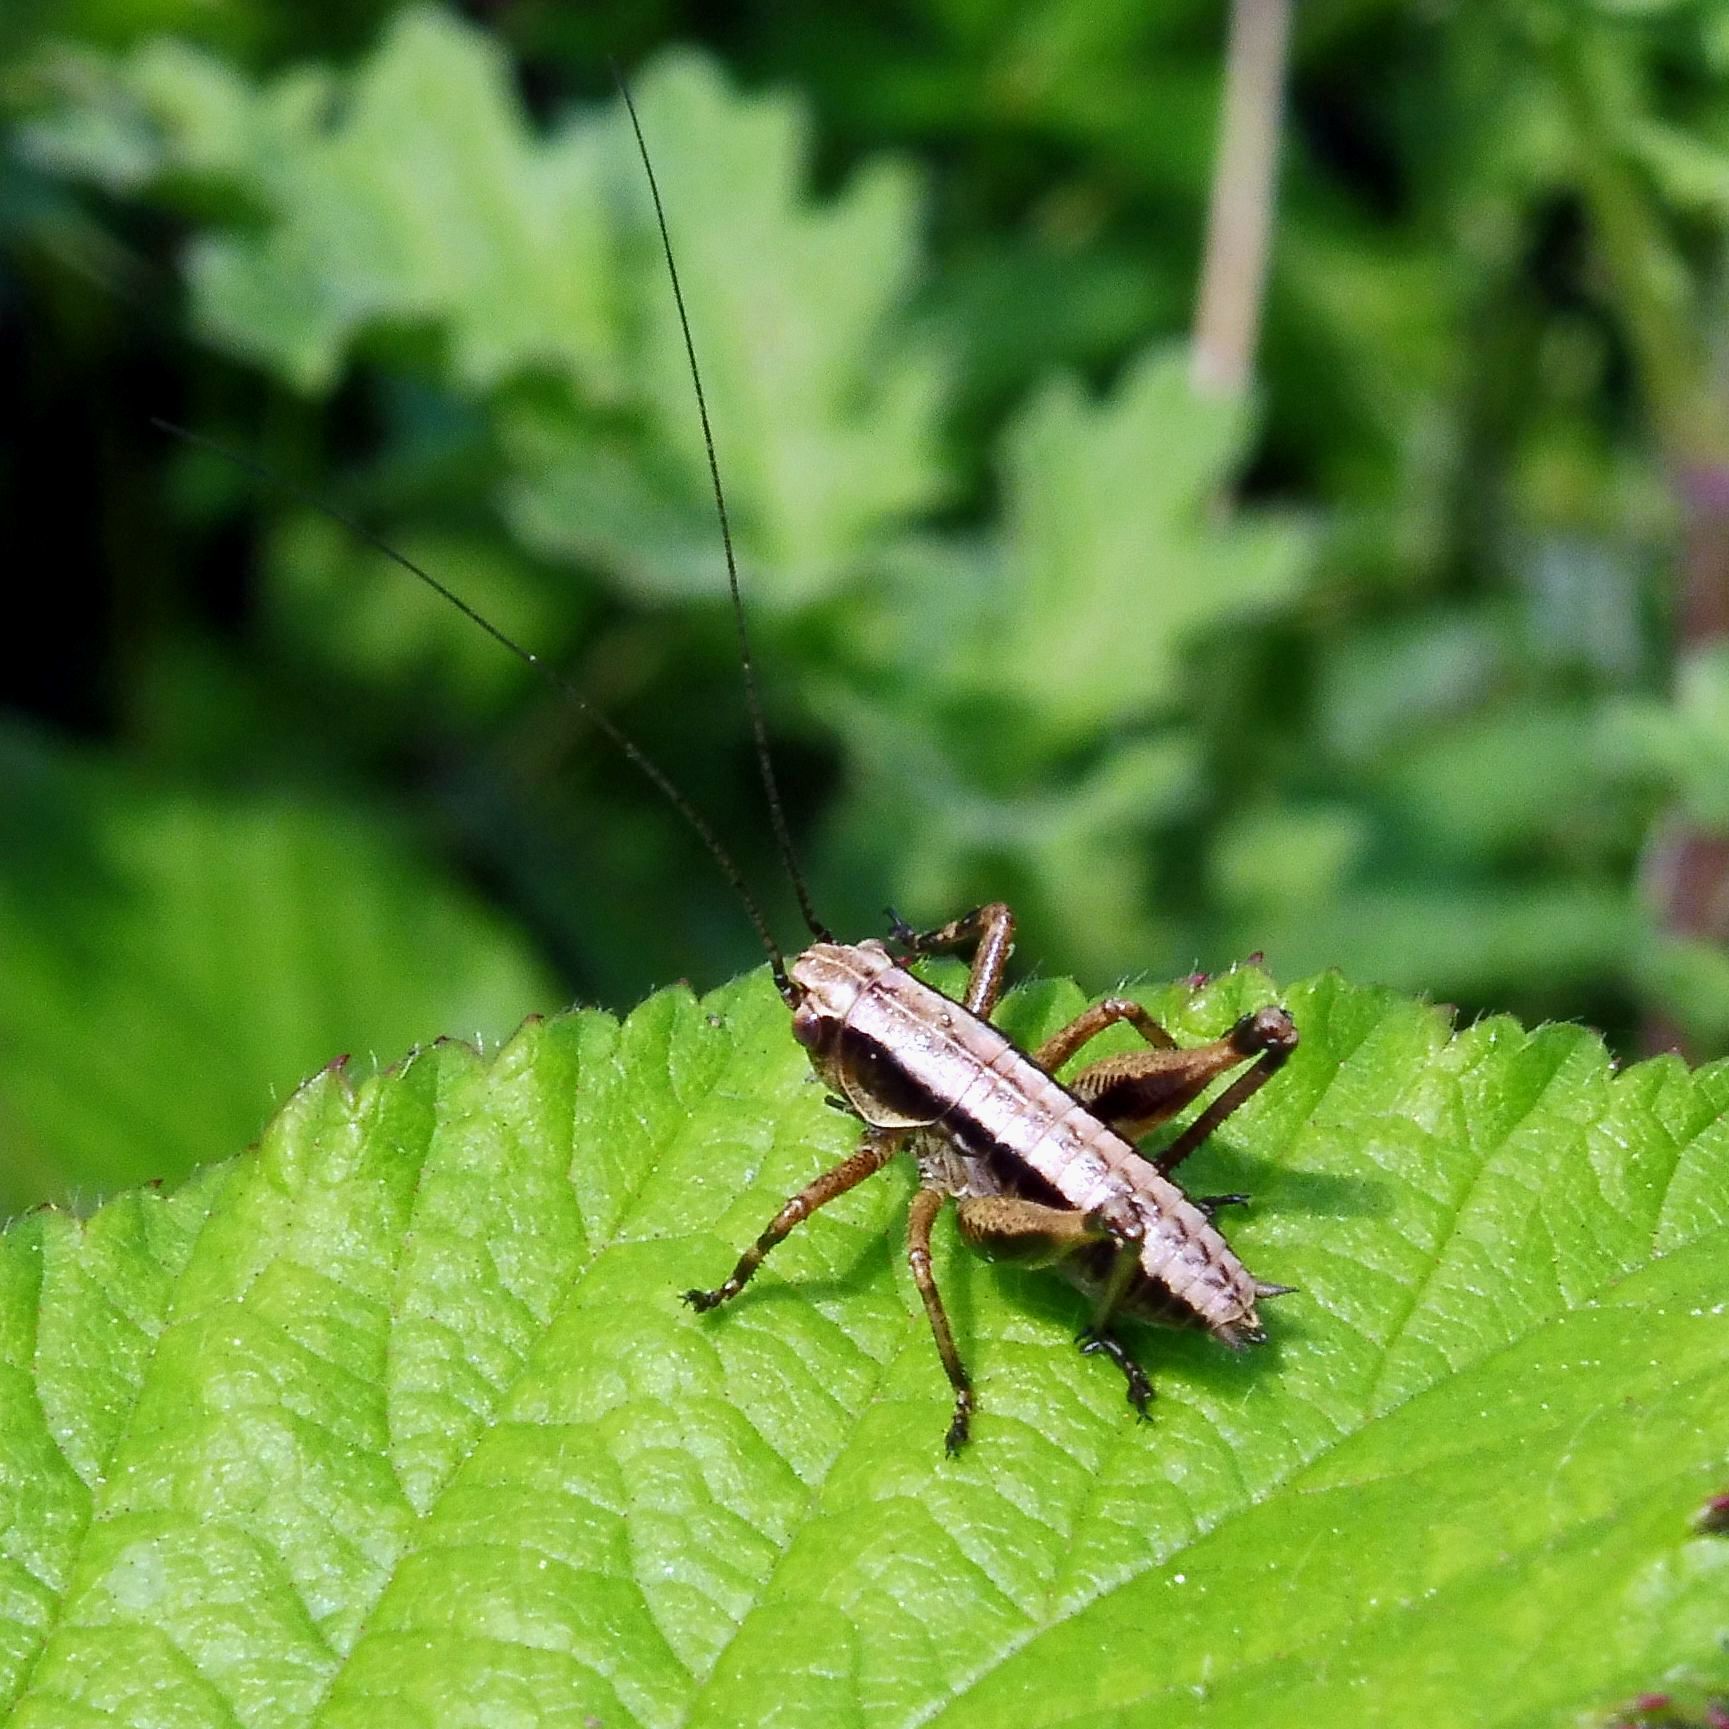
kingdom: Animalia
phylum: Arthropoda
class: Insecta
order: Orthoptera
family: Tettigoniidae
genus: Pholidoptera
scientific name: Pholidoptera griseoaptera
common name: Dark bush-cricket
